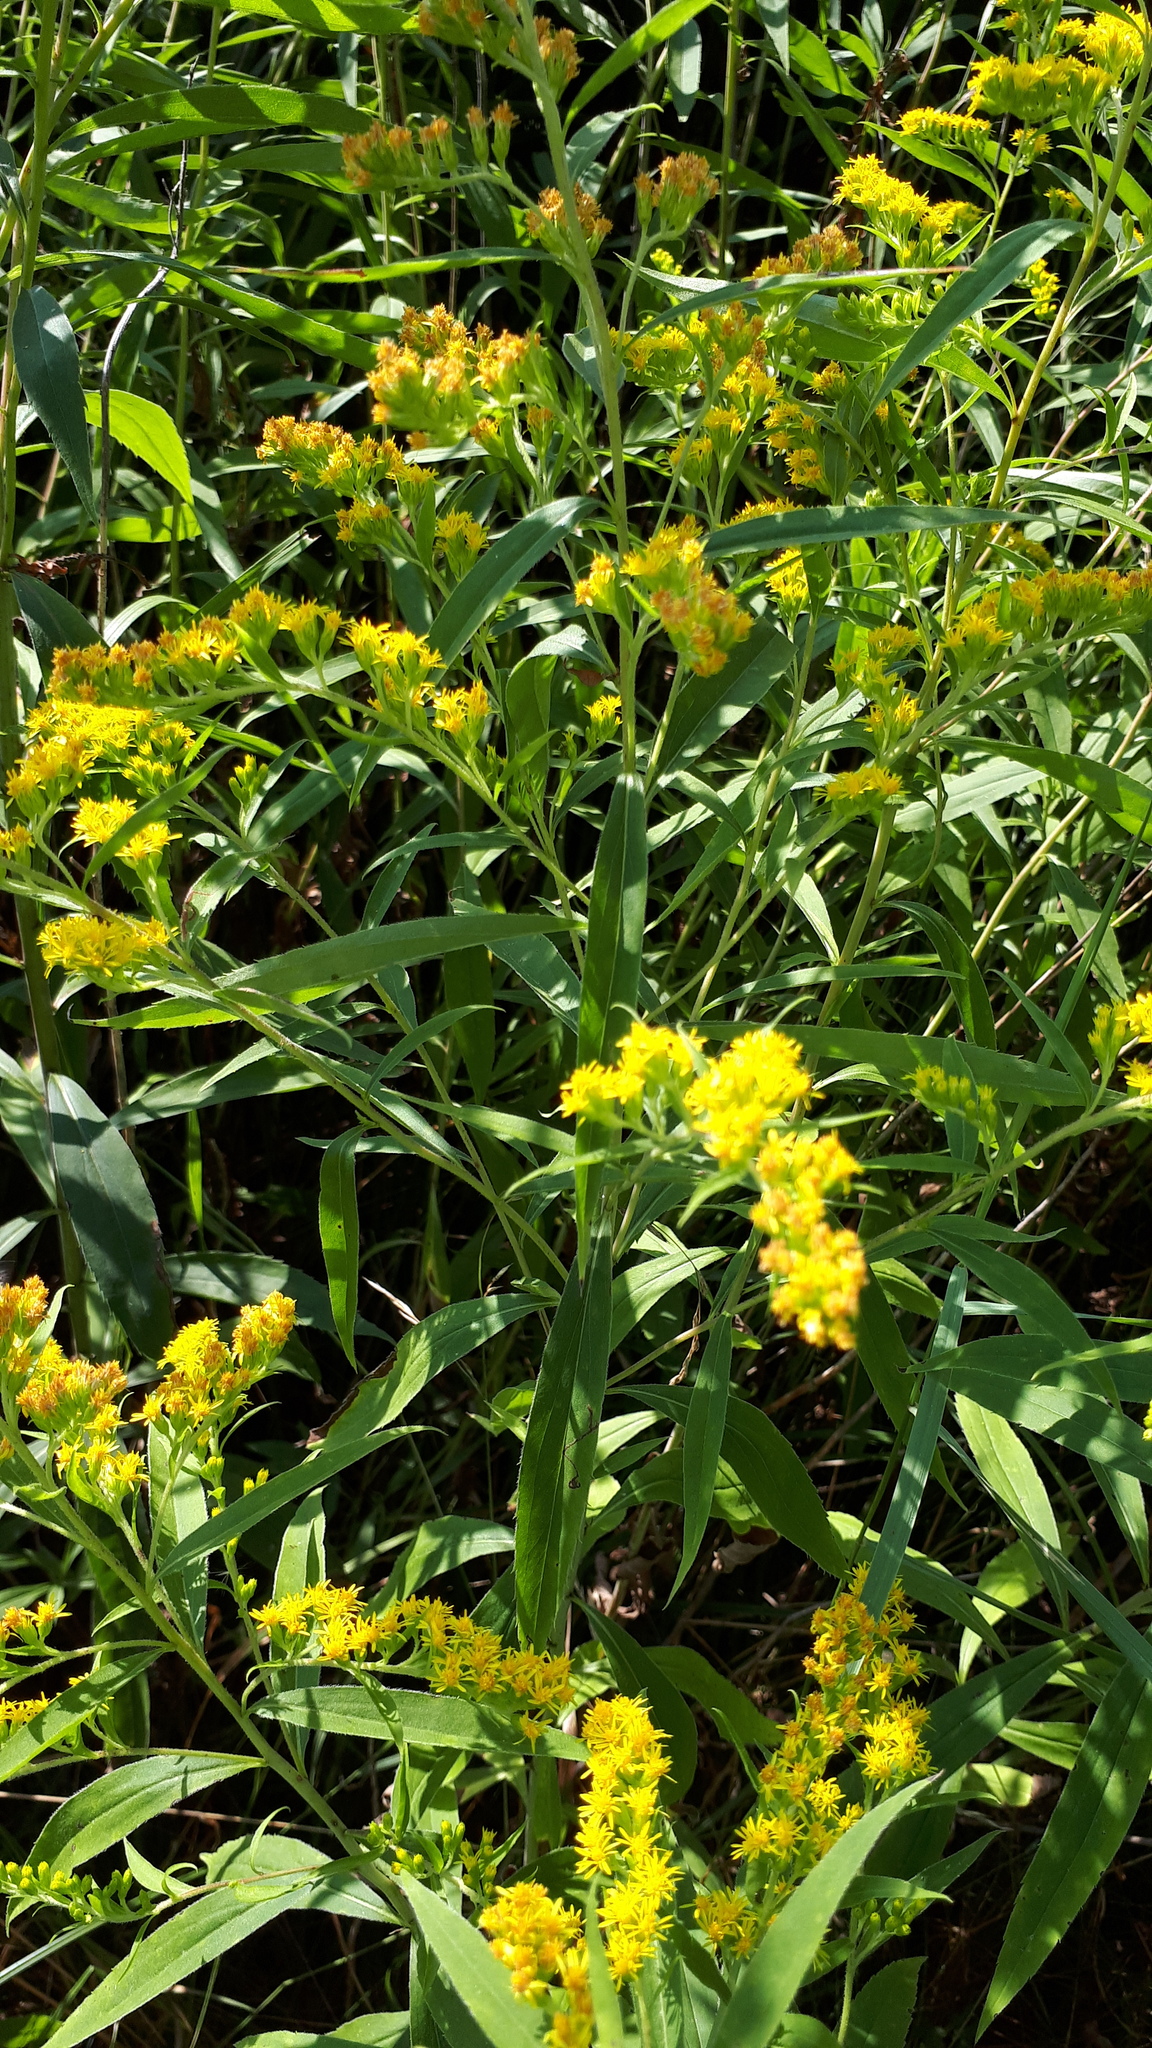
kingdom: Plantae
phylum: Tracheophyta
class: Magnoliopsida
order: Asterales
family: Asteraceae
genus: Solidago
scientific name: Solidago canadensis
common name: Canada goldenrod
